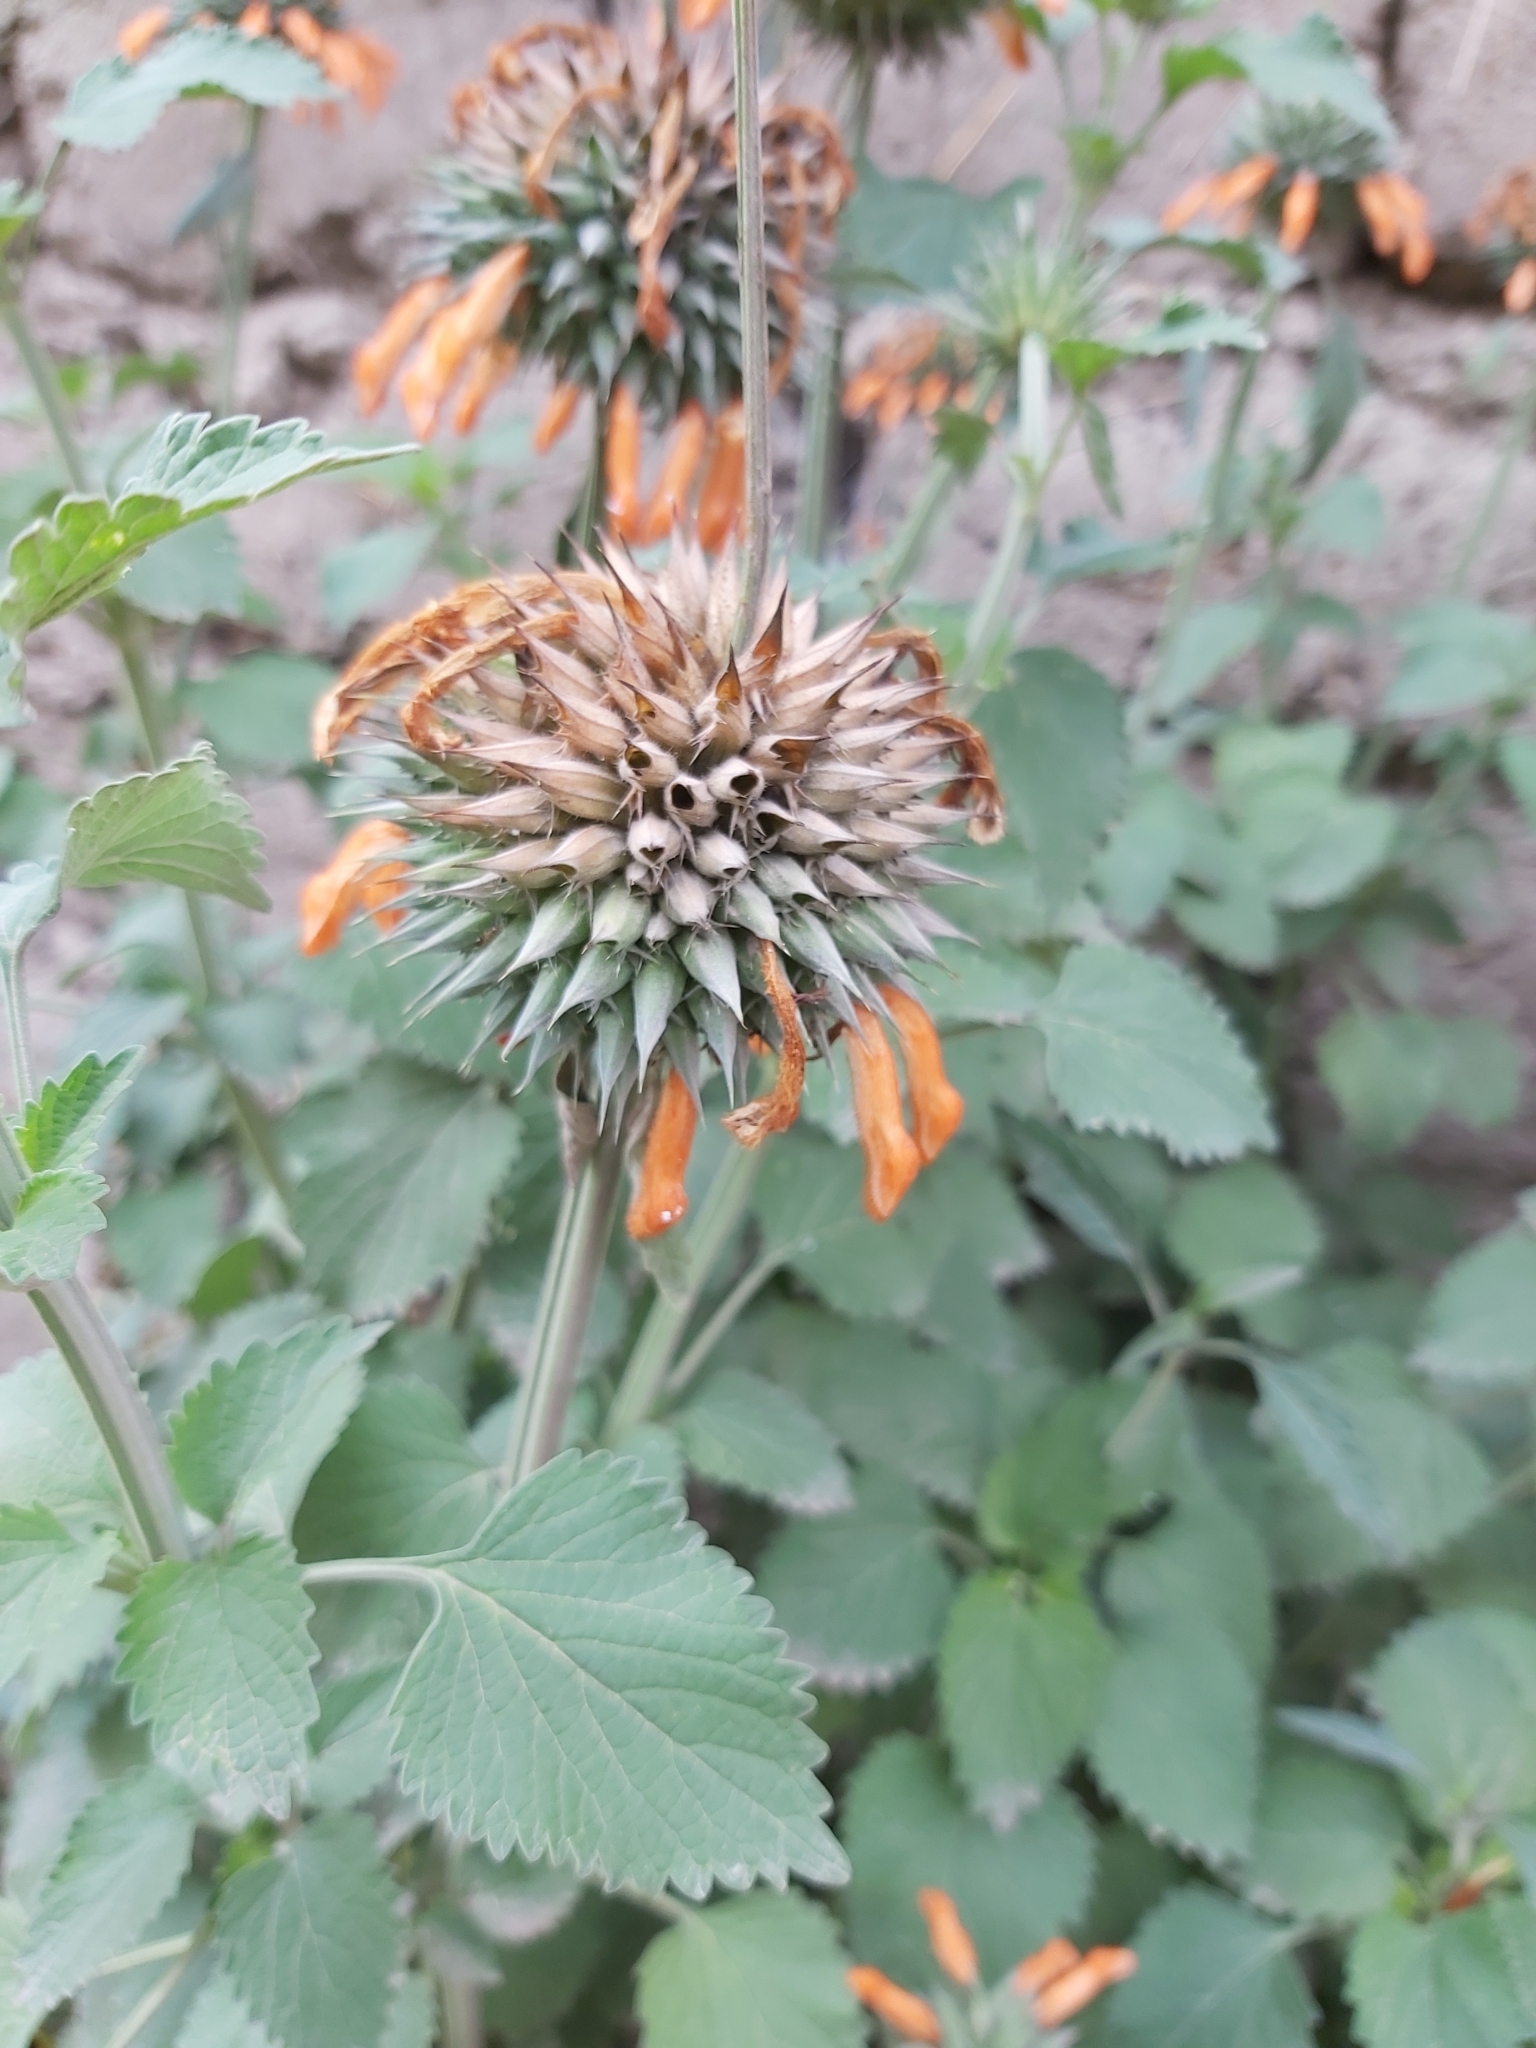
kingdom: Plantae
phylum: Tracheophyta
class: Magnoliopsida
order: Lamiales
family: Lamiaceae
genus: Leonotis
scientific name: Leonotis nepetifolia
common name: Christmas candlestick
